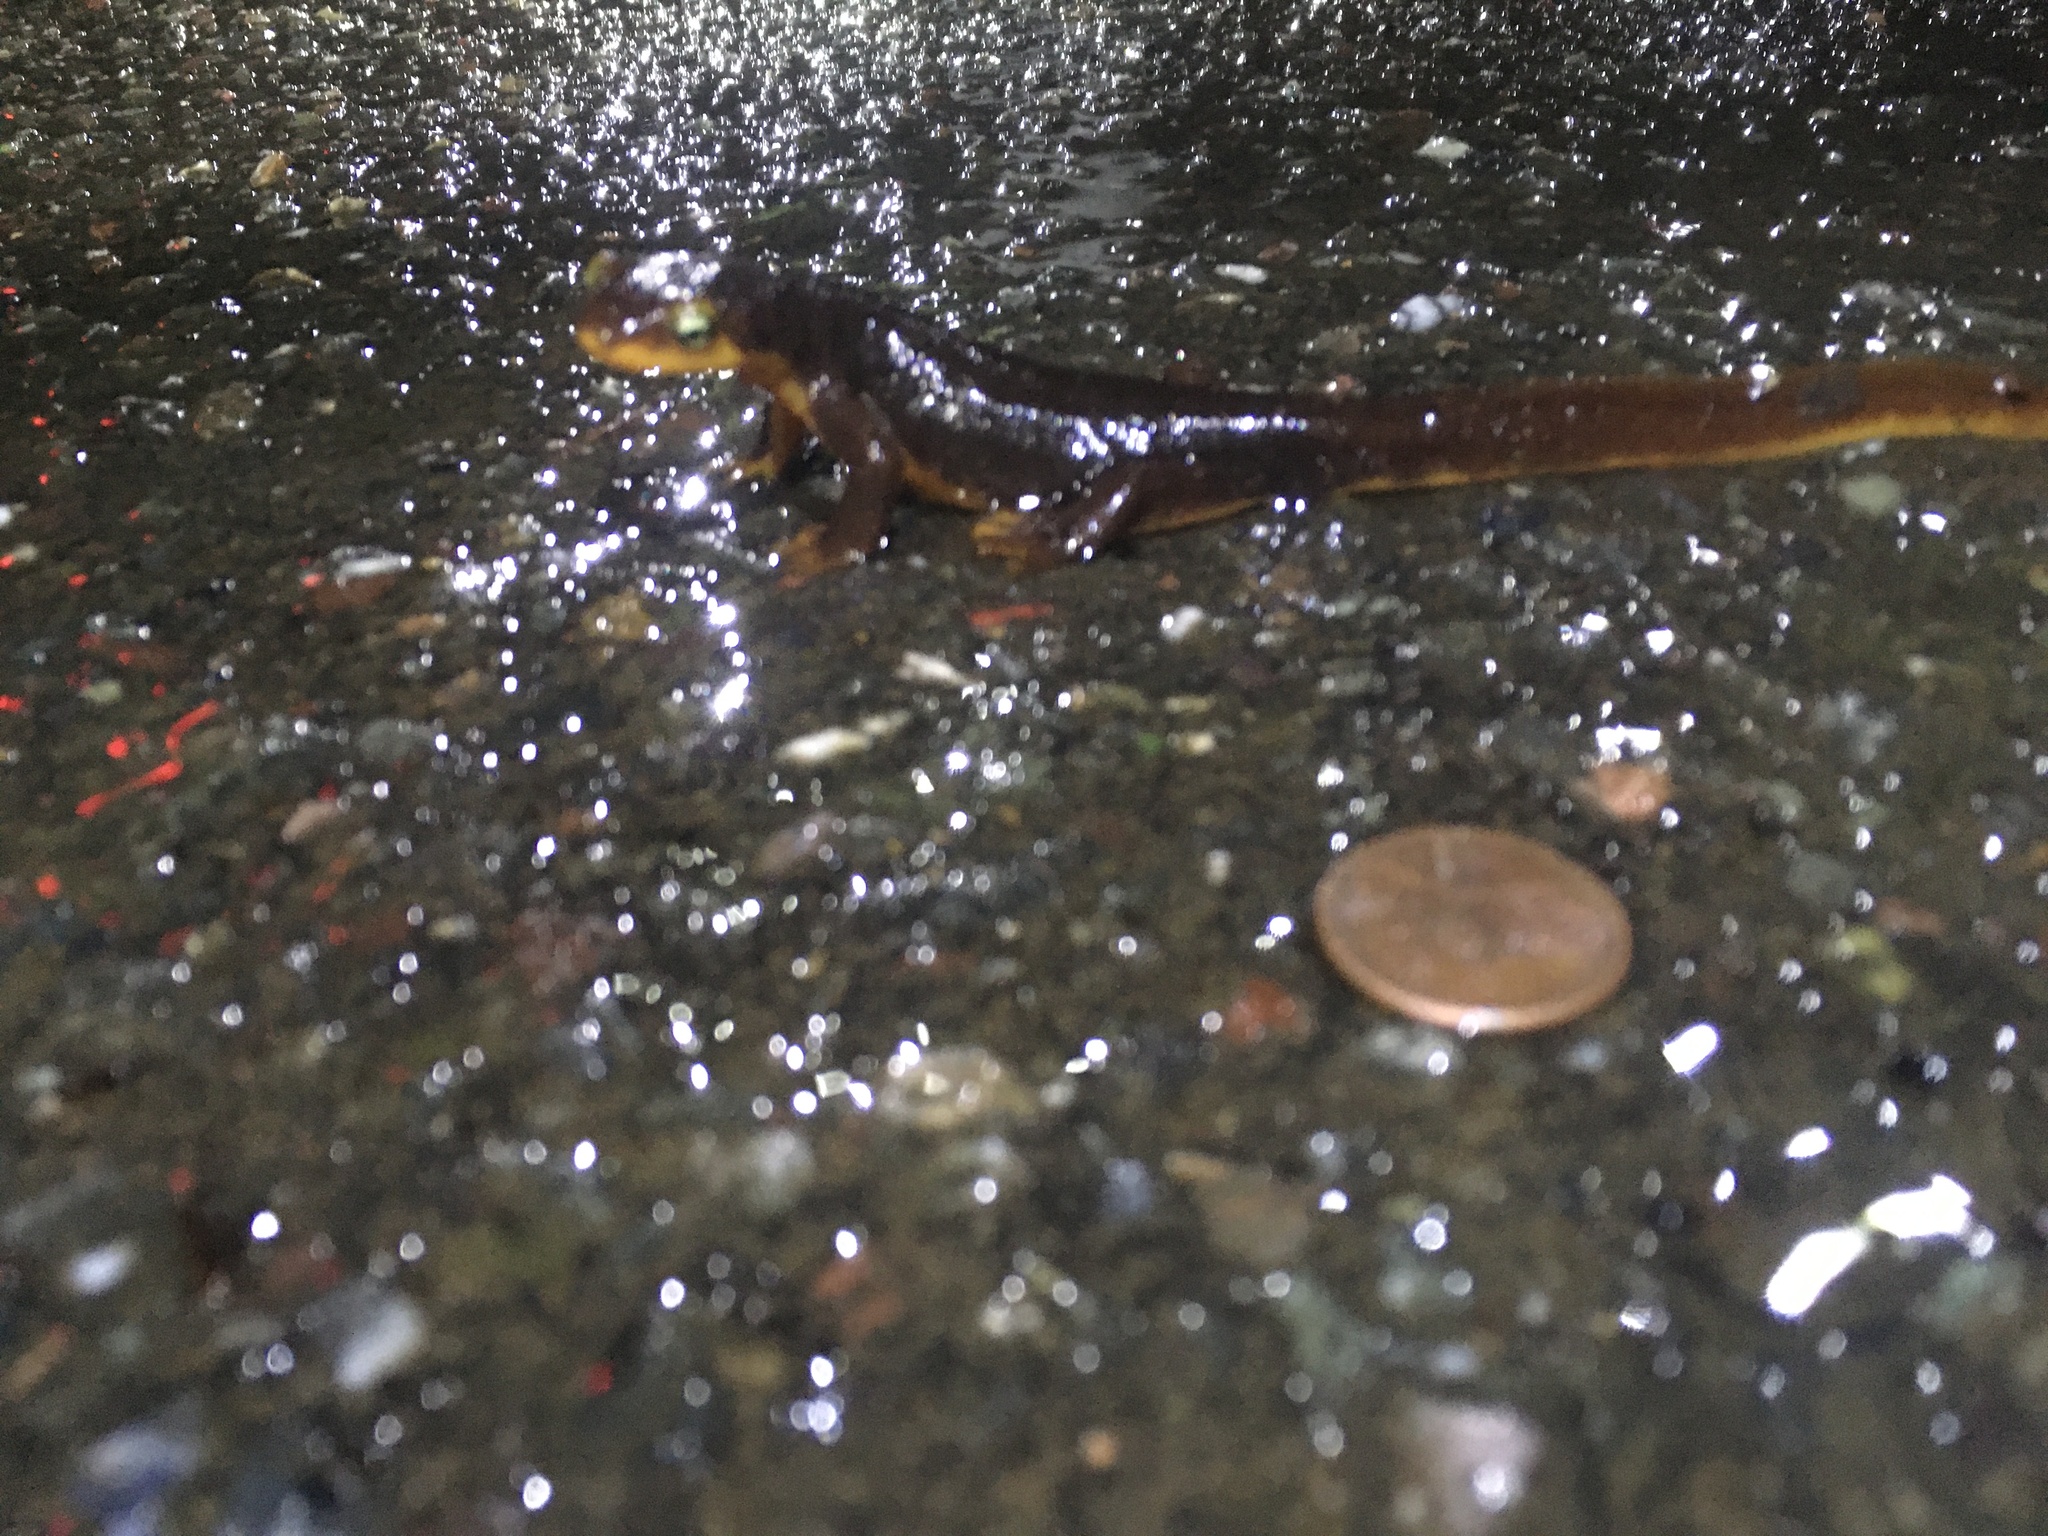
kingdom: Animalia
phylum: Chordata
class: Amphibia
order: Caudata
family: Salamandridae
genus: Taricha
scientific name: Taricha torosa
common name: California newt
